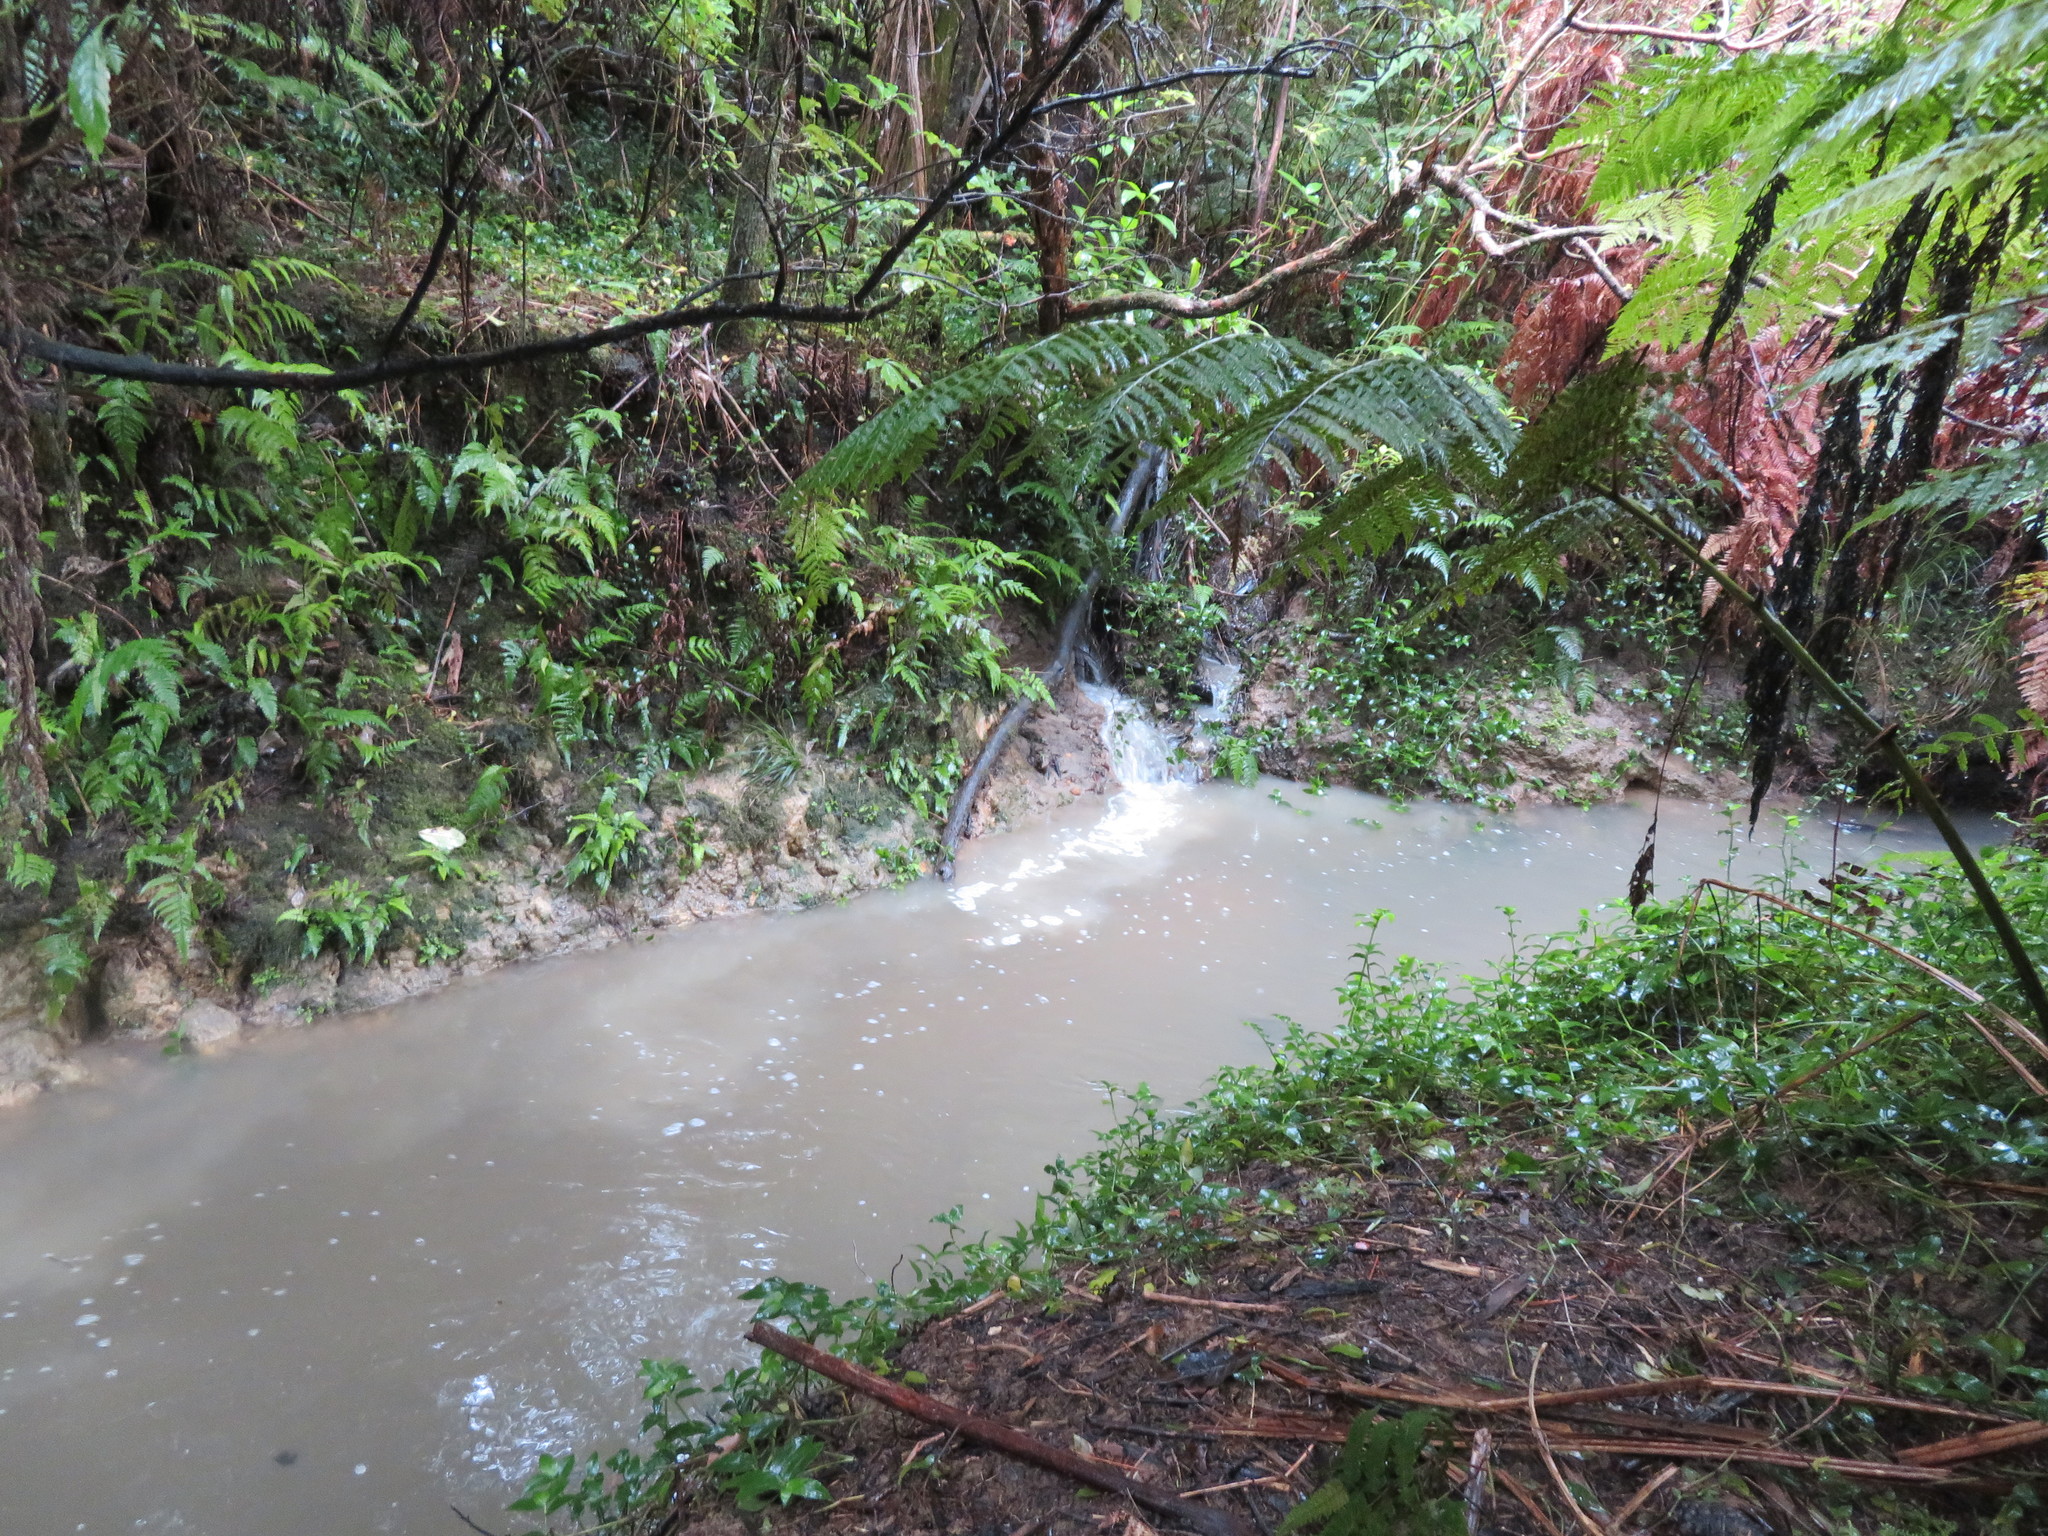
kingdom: Plantae
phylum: Tracheophyta
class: Liliopsida
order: Commelinales
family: Commelinaceae
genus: Tradescantia
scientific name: Tradescantia fluminensis
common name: Wandering-jew
